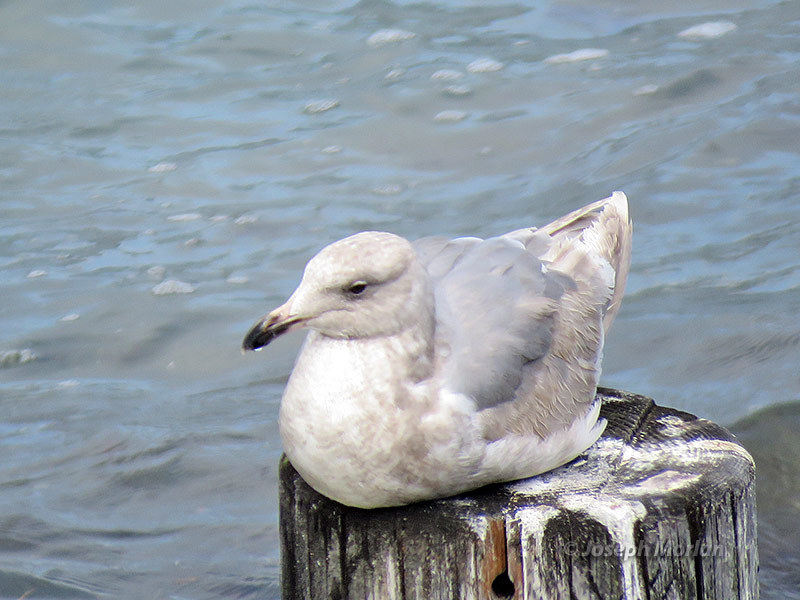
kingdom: Animalia
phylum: Chordata
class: Aves
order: Charadriiformes
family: Laridae
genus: Larus
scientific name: Larus glaucescens
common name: Glaucous-winged gull
